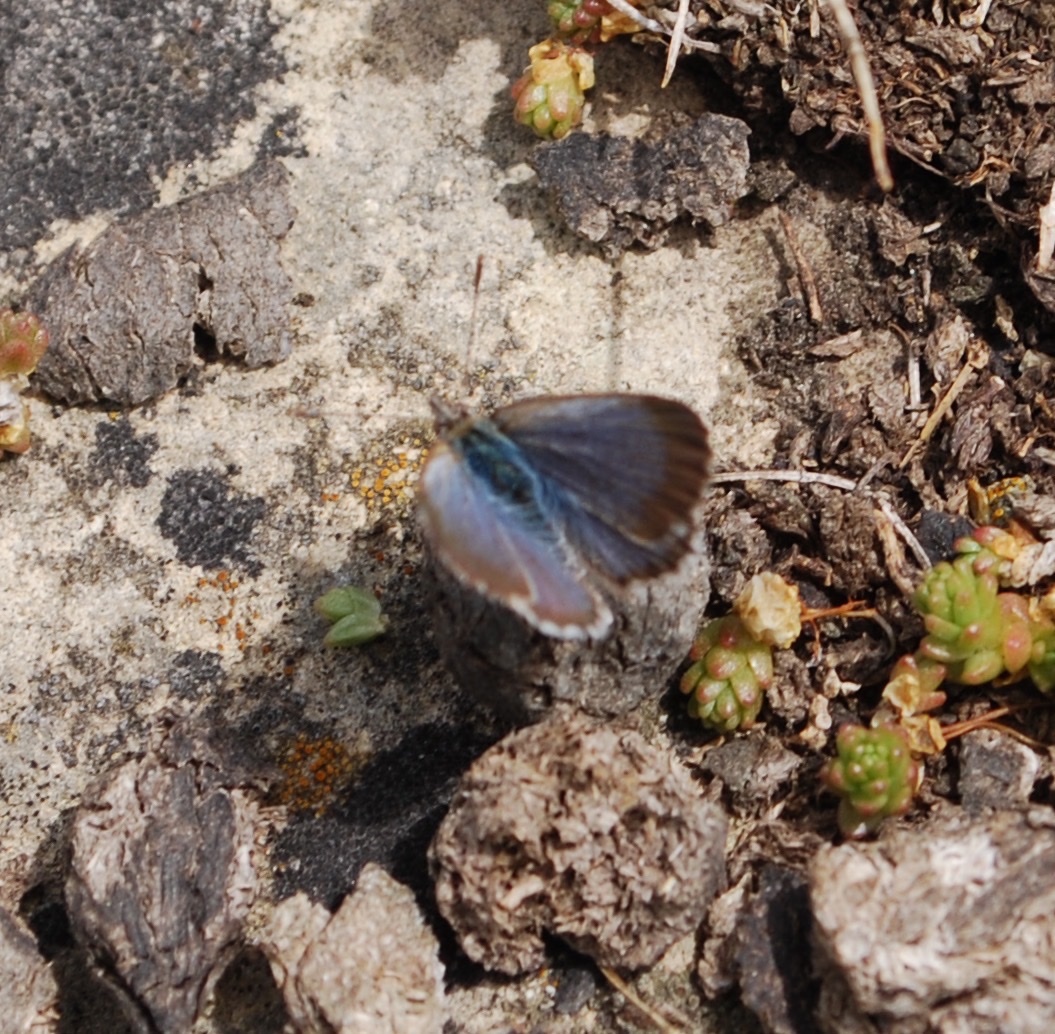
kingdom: Animalia
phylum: Arthropoda
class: Insecta
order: Lepidoptera
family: Lycaenidae
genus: Zizina
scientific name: Zizina oxleyi
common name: Southern blue
